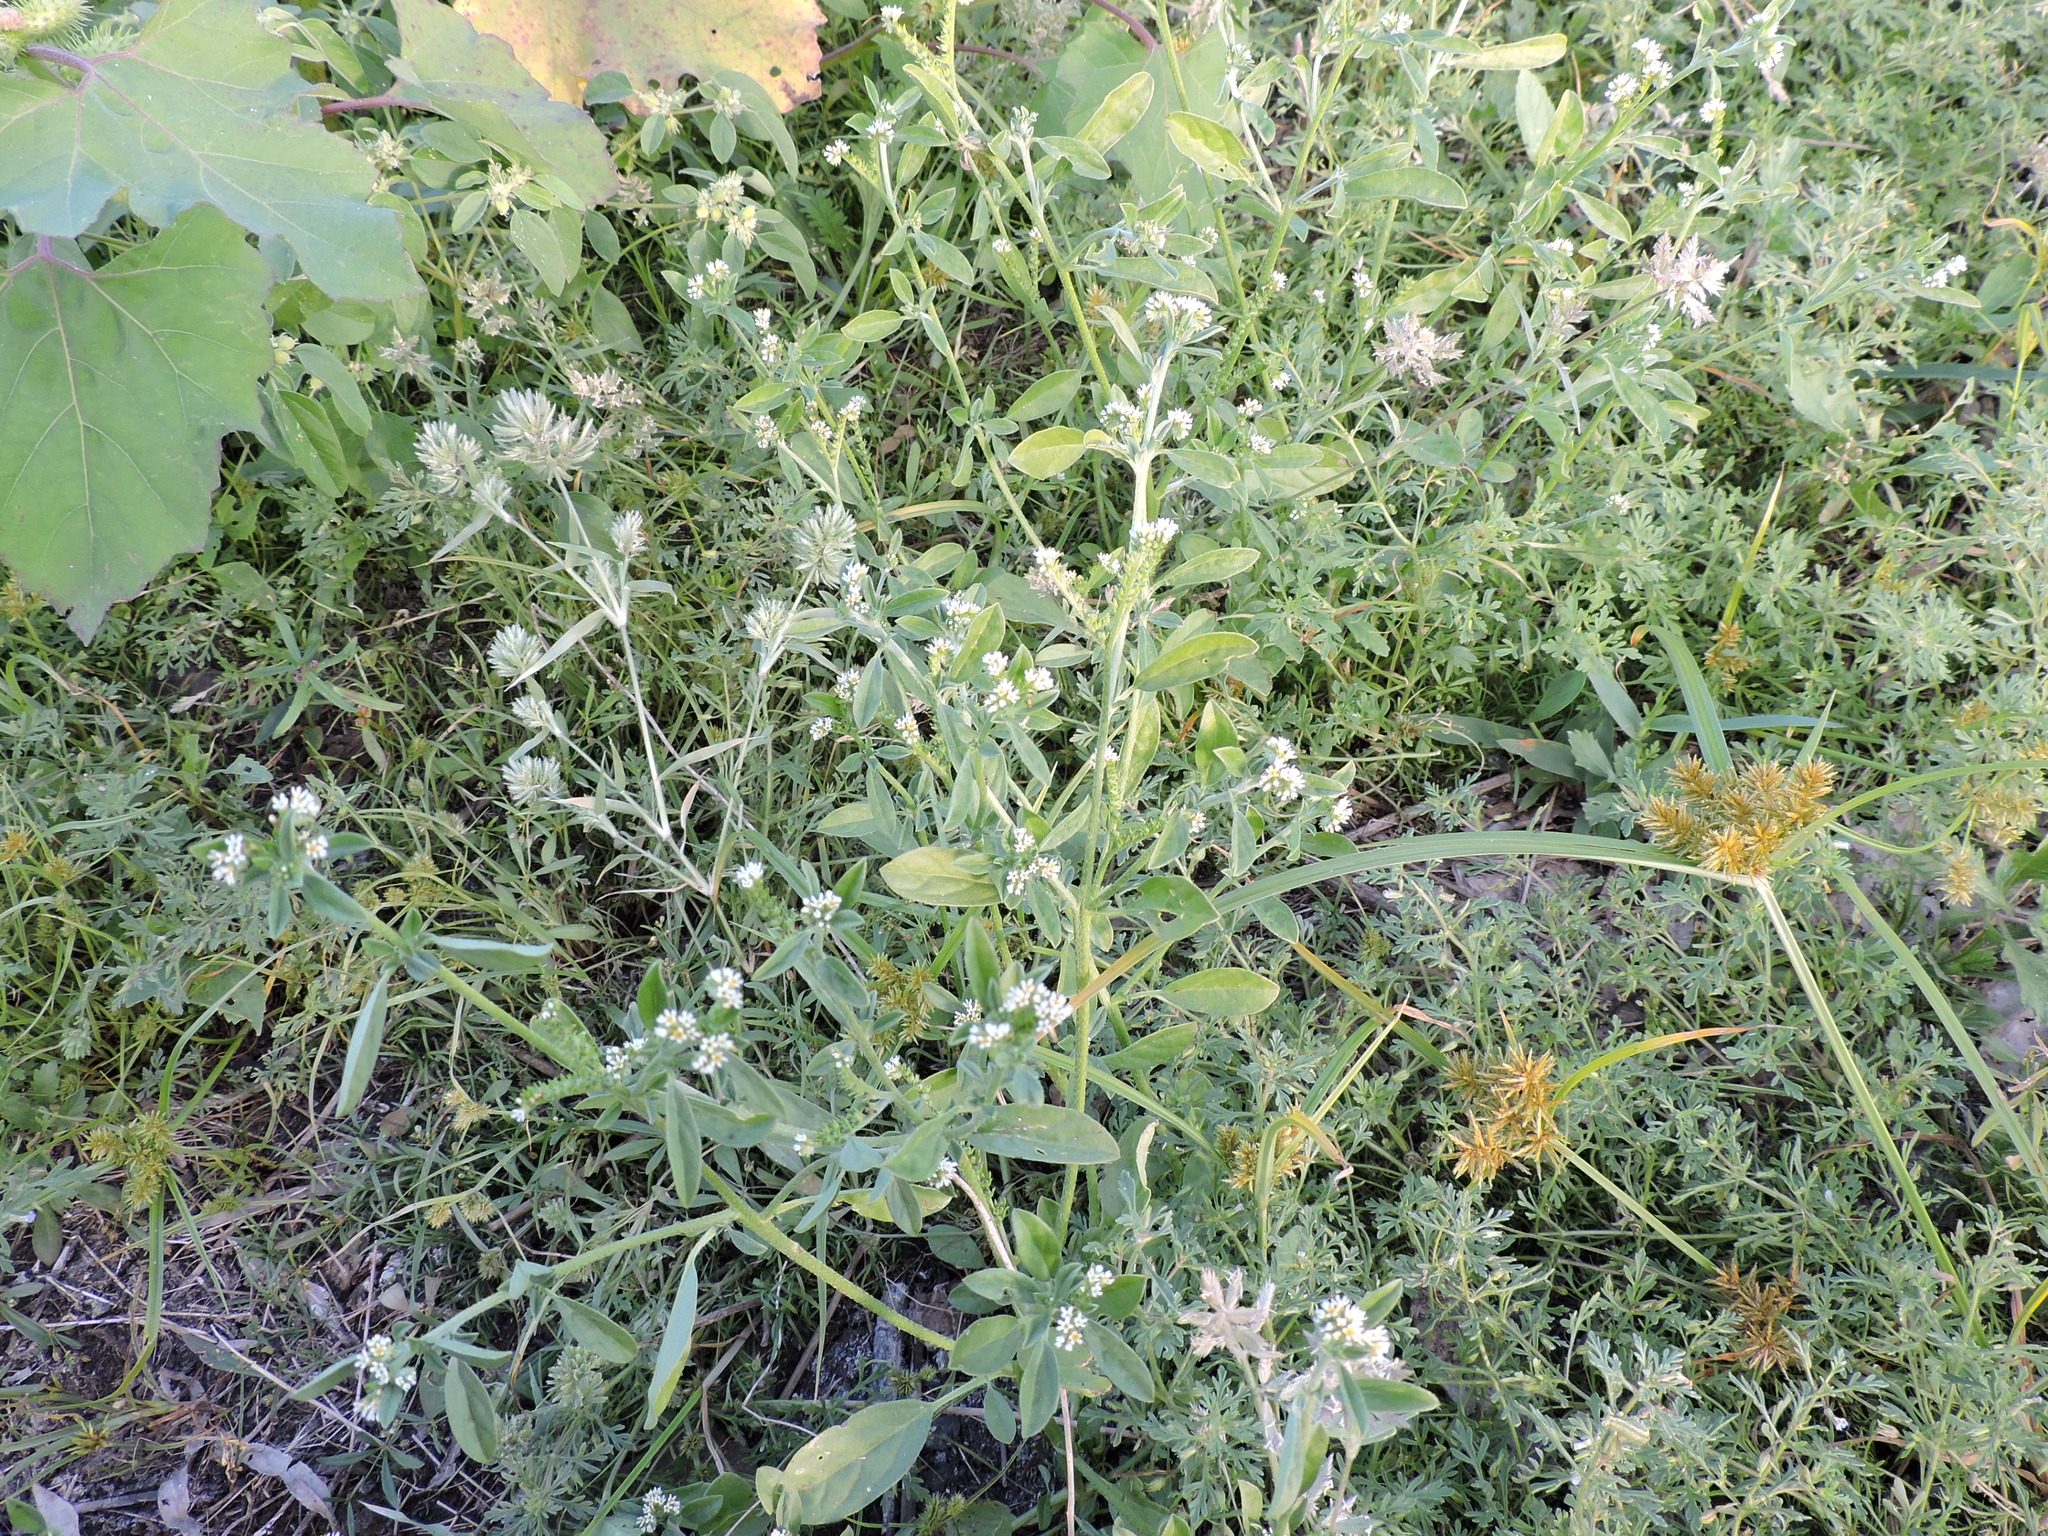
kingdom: Plantae
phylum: Tracheophyta
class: Magnoliopsida
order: Boraginales
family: Heliotropiaceae
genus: Euploca
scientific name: Euploca procumbens
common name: Fourspike heliotrope
